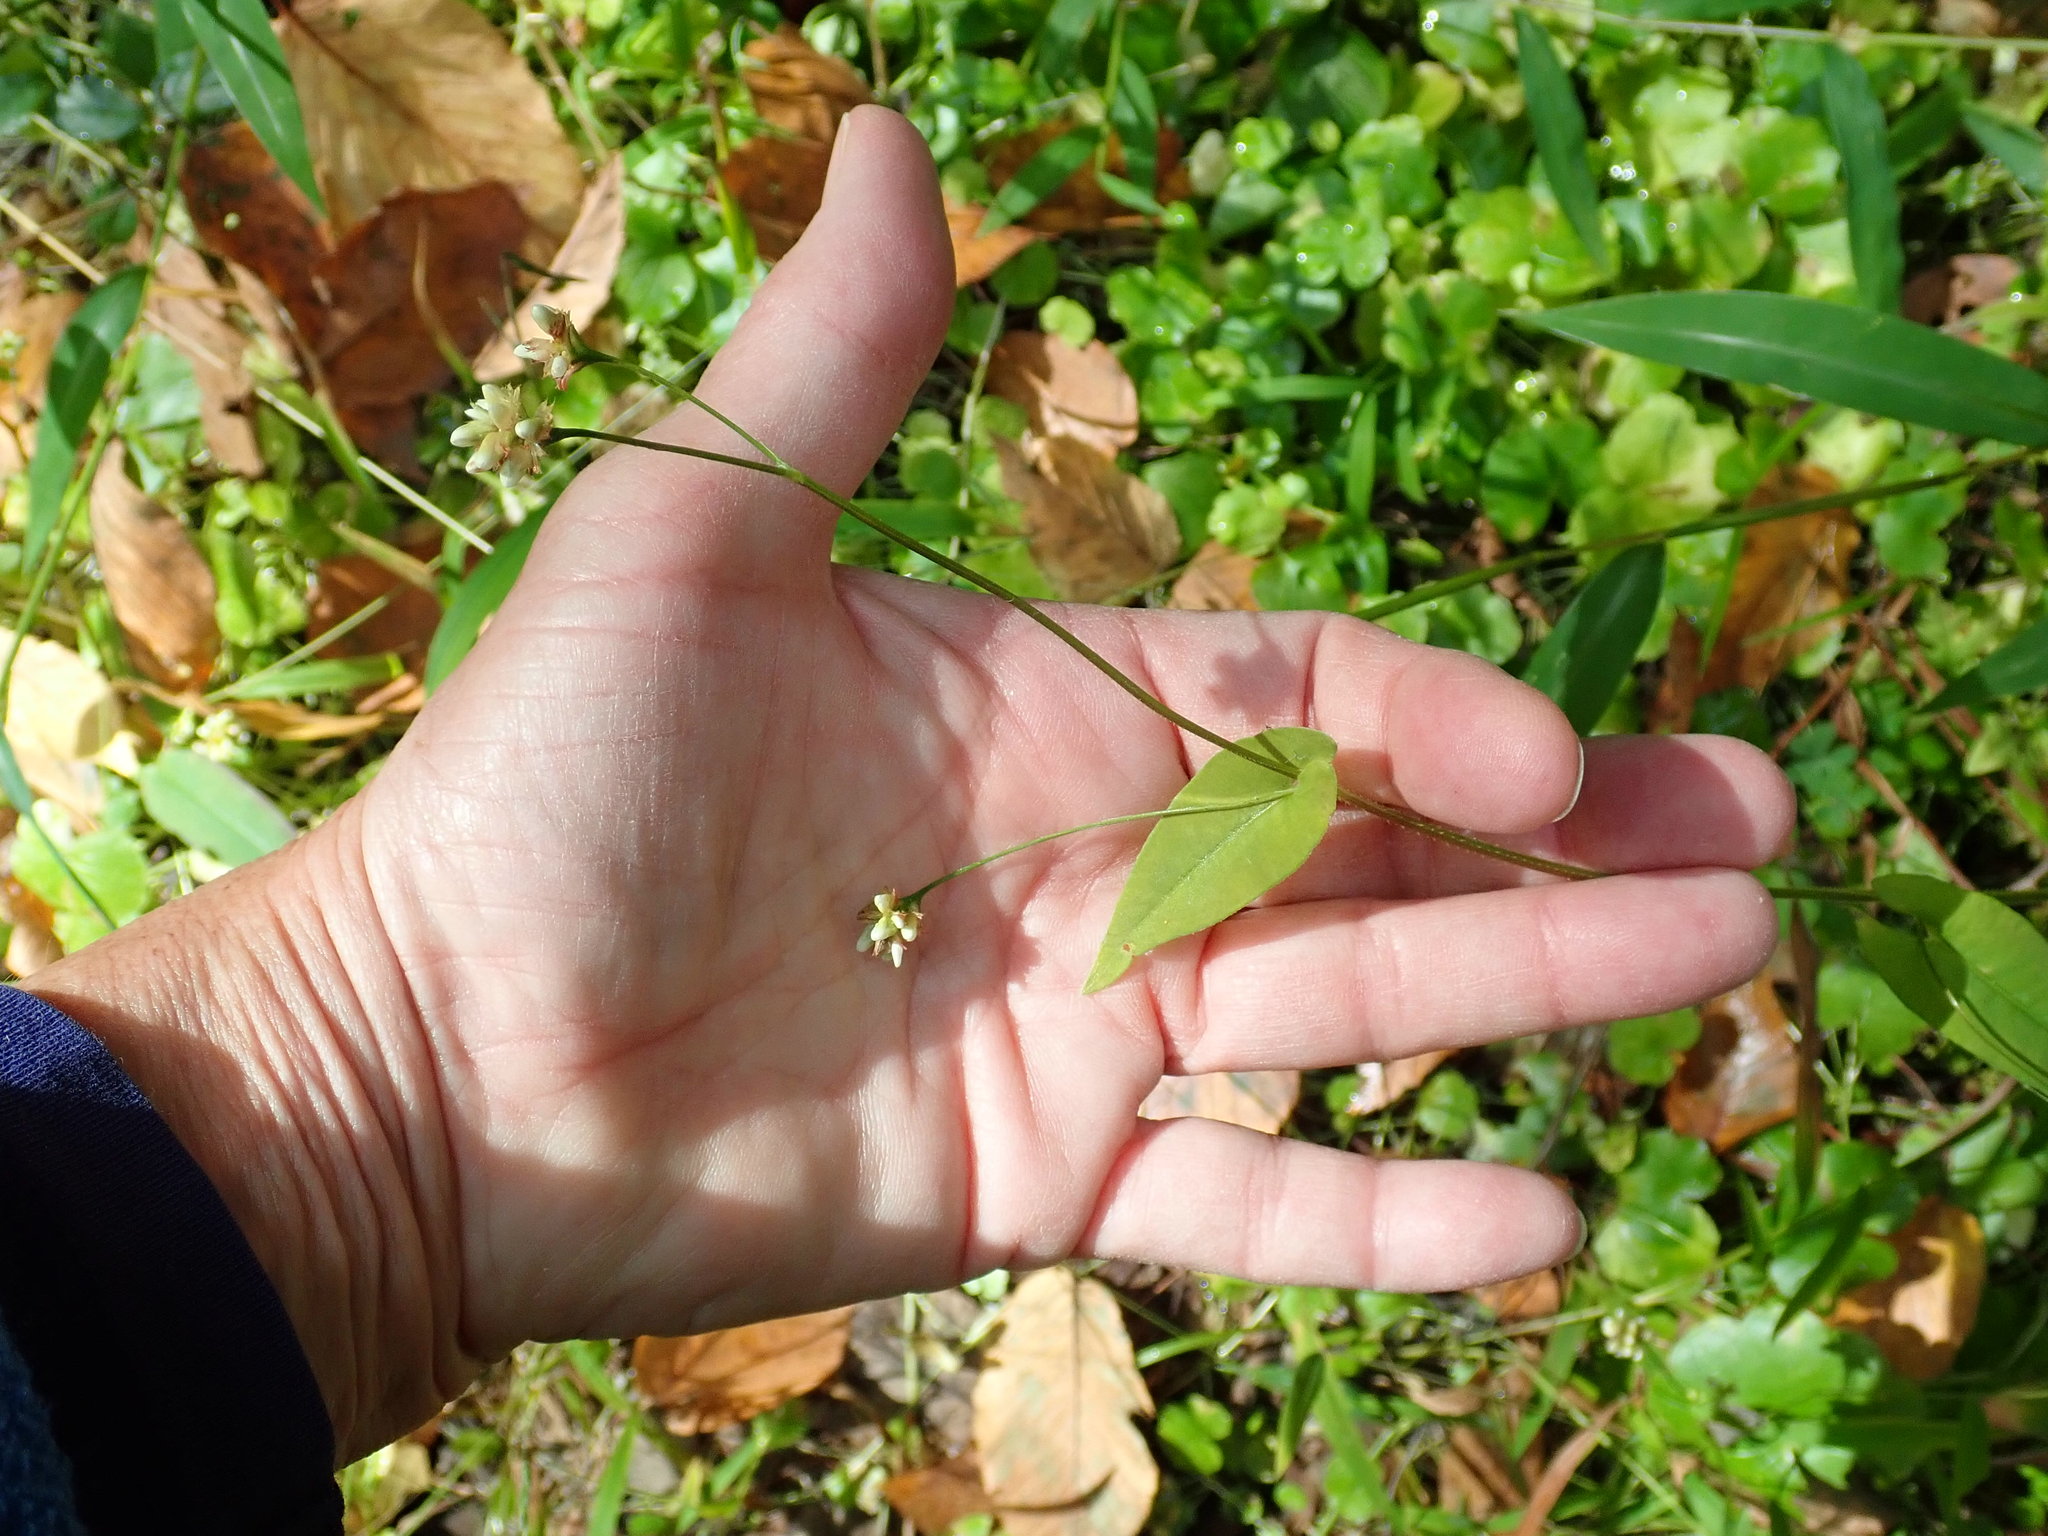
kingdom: Plantae
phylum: Tracheophyta
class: Magnoliopsida
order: Caryophyllales
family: Polygonaceae
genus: Persicaria
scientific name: Persicaria sagittata
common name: American tearthumb
